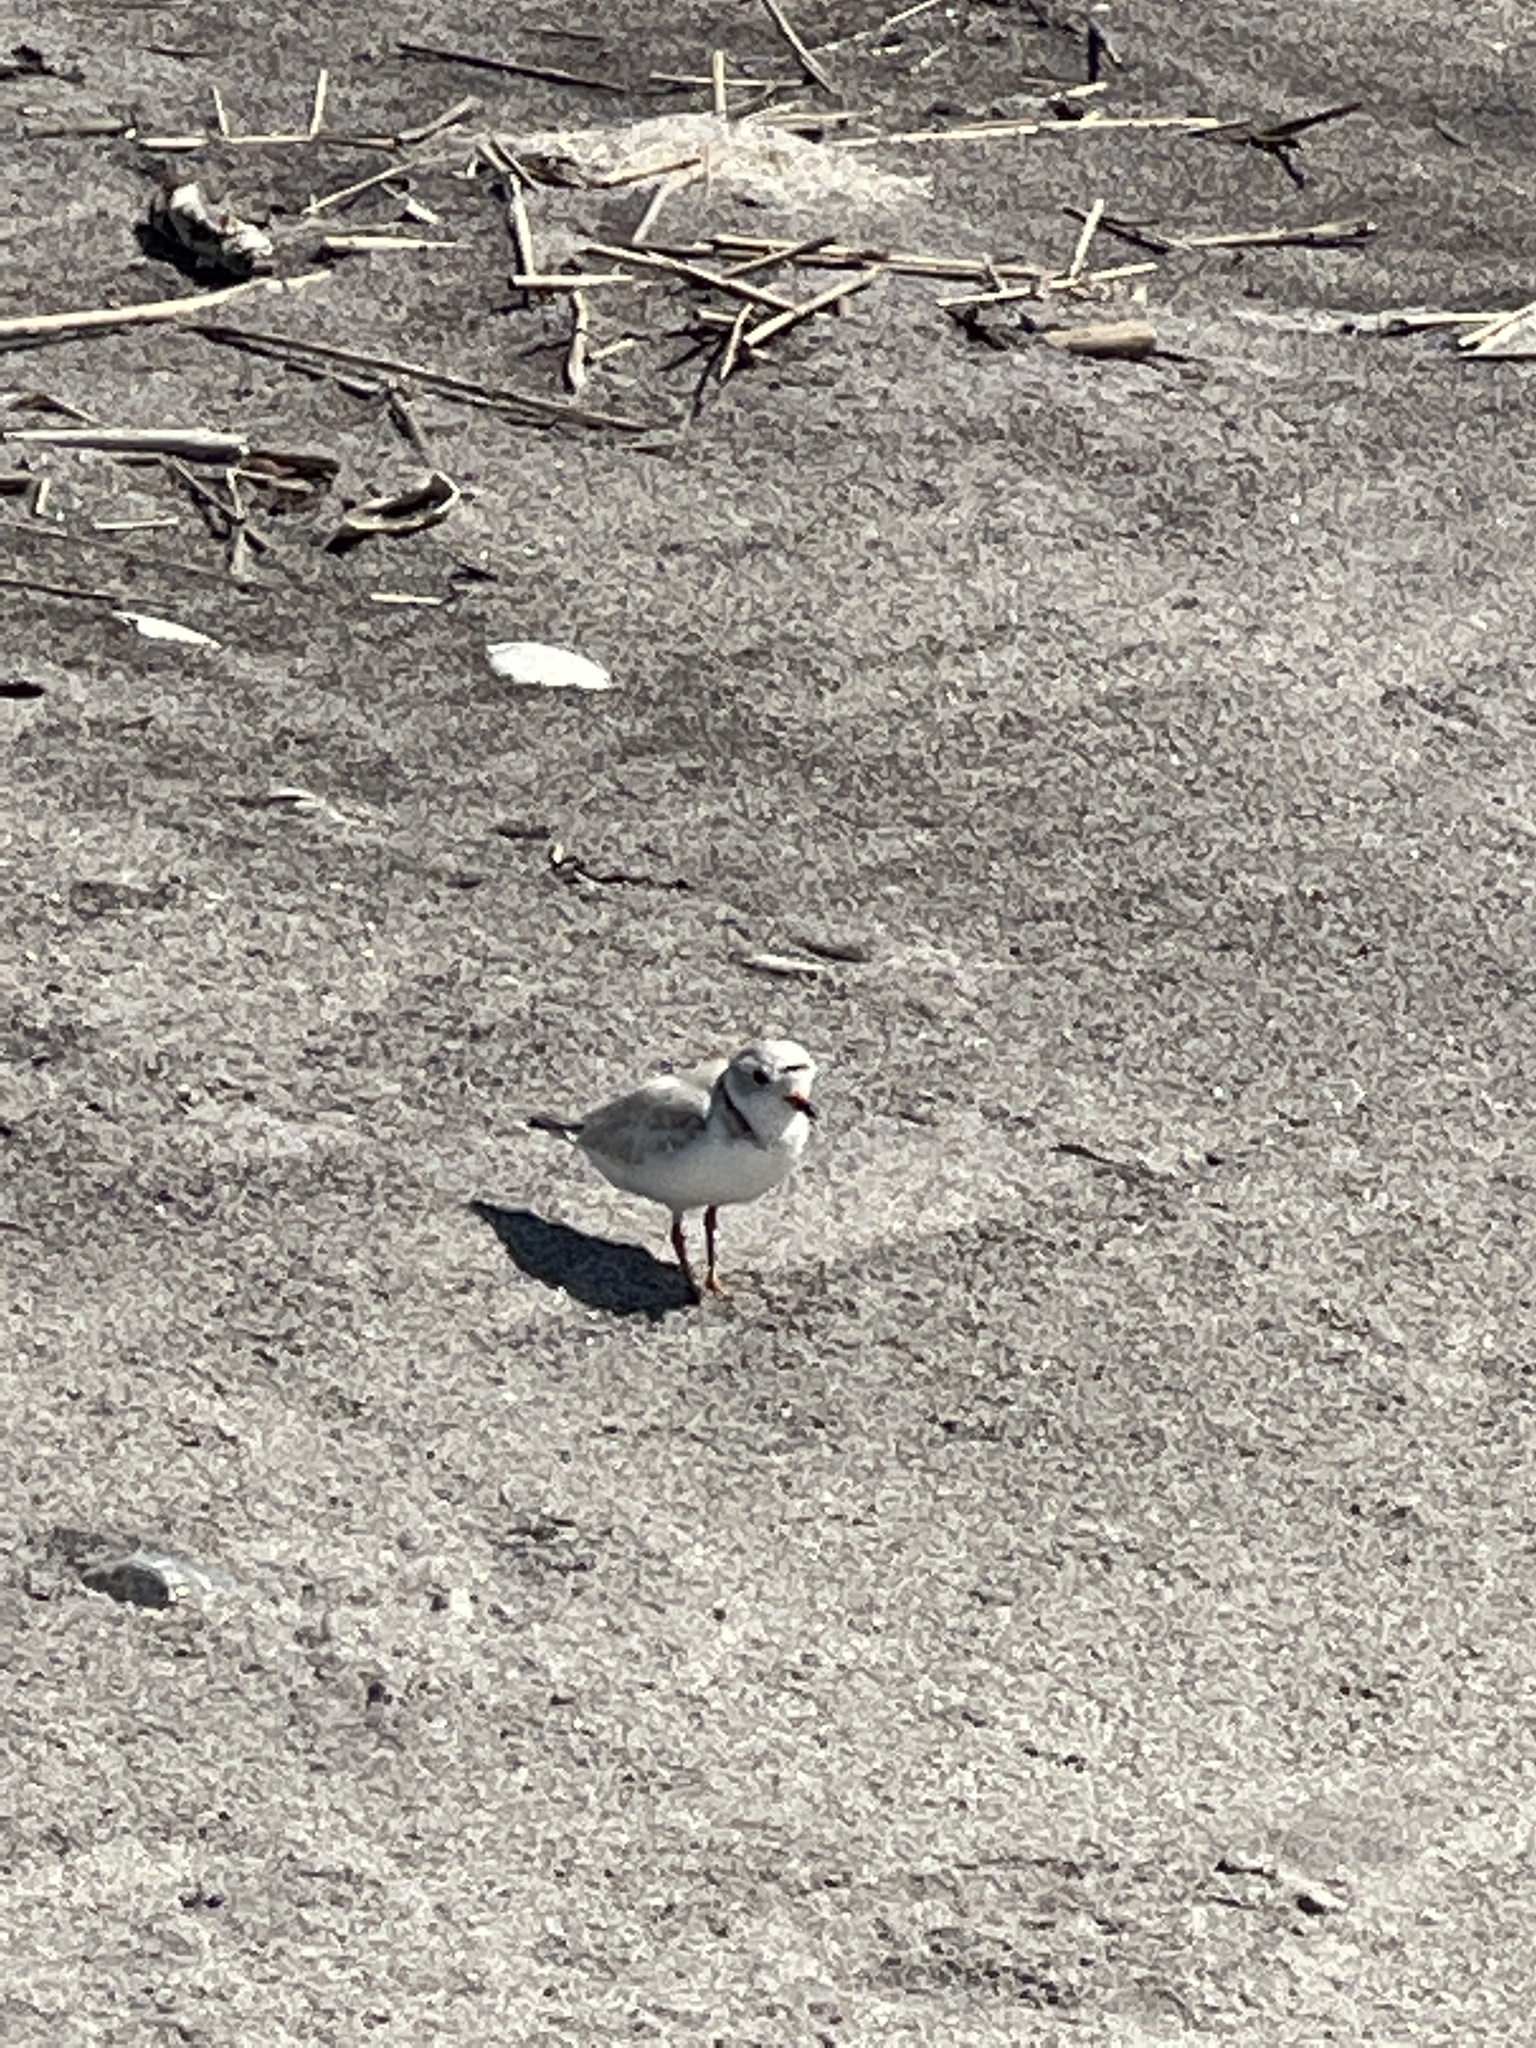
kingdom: Animalia
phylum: Chordata
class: Aves
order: Charadriiformes
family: Charadriidae
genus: Charadrius
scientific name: Charadrius melodus
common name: Piping plover
